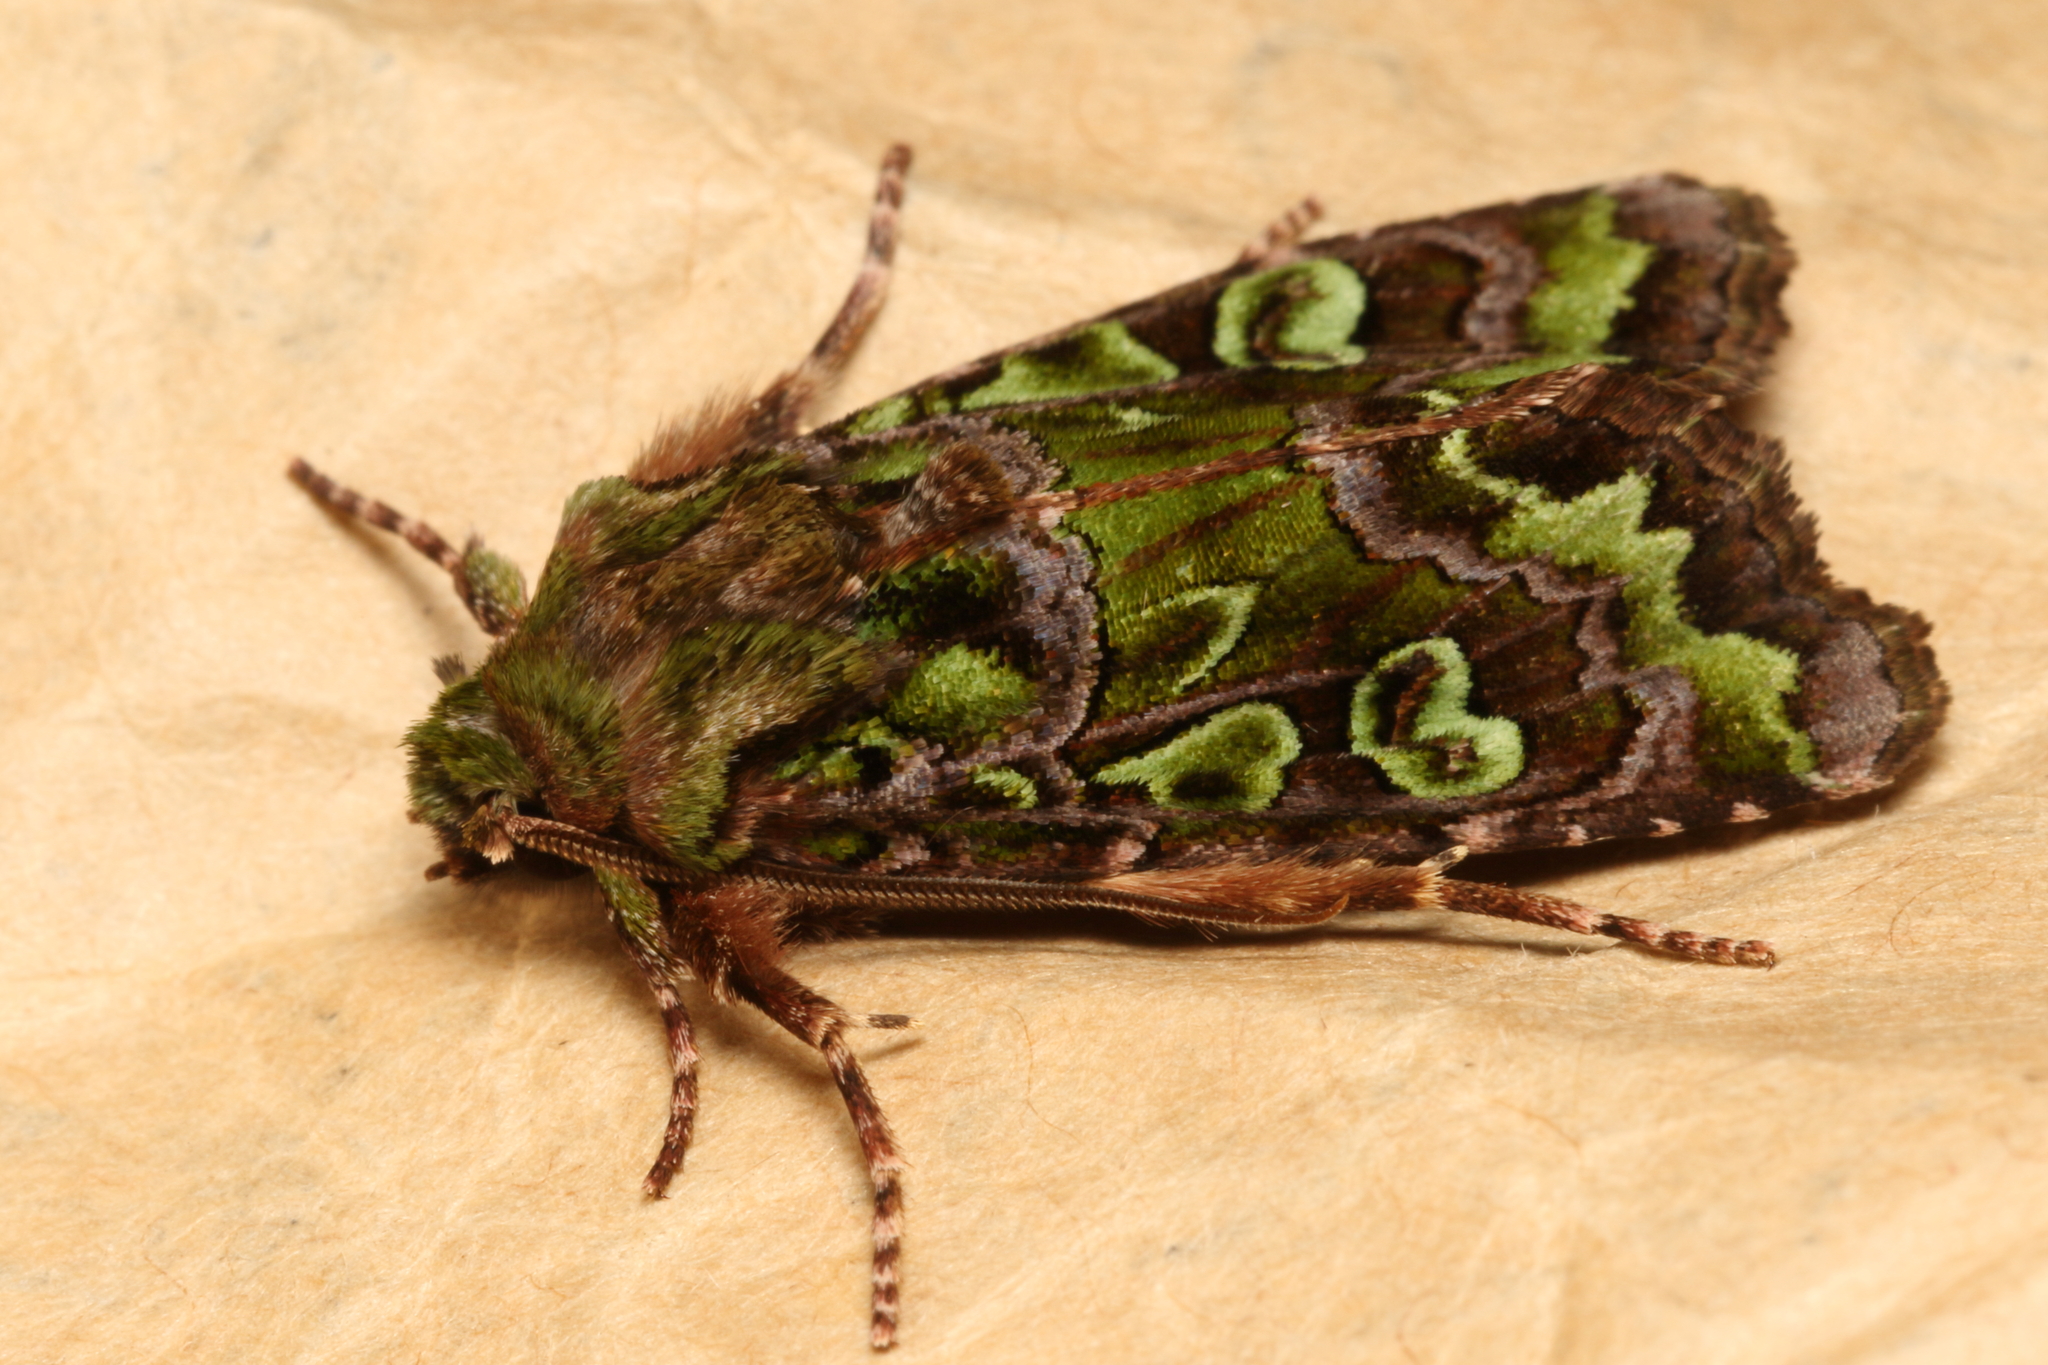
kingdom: Animalia
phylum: Arthropoda
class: Insecta
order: Lepidoptera
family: Noctuidae
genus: Ichneutica
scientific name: Ichneutica chlorodonta
